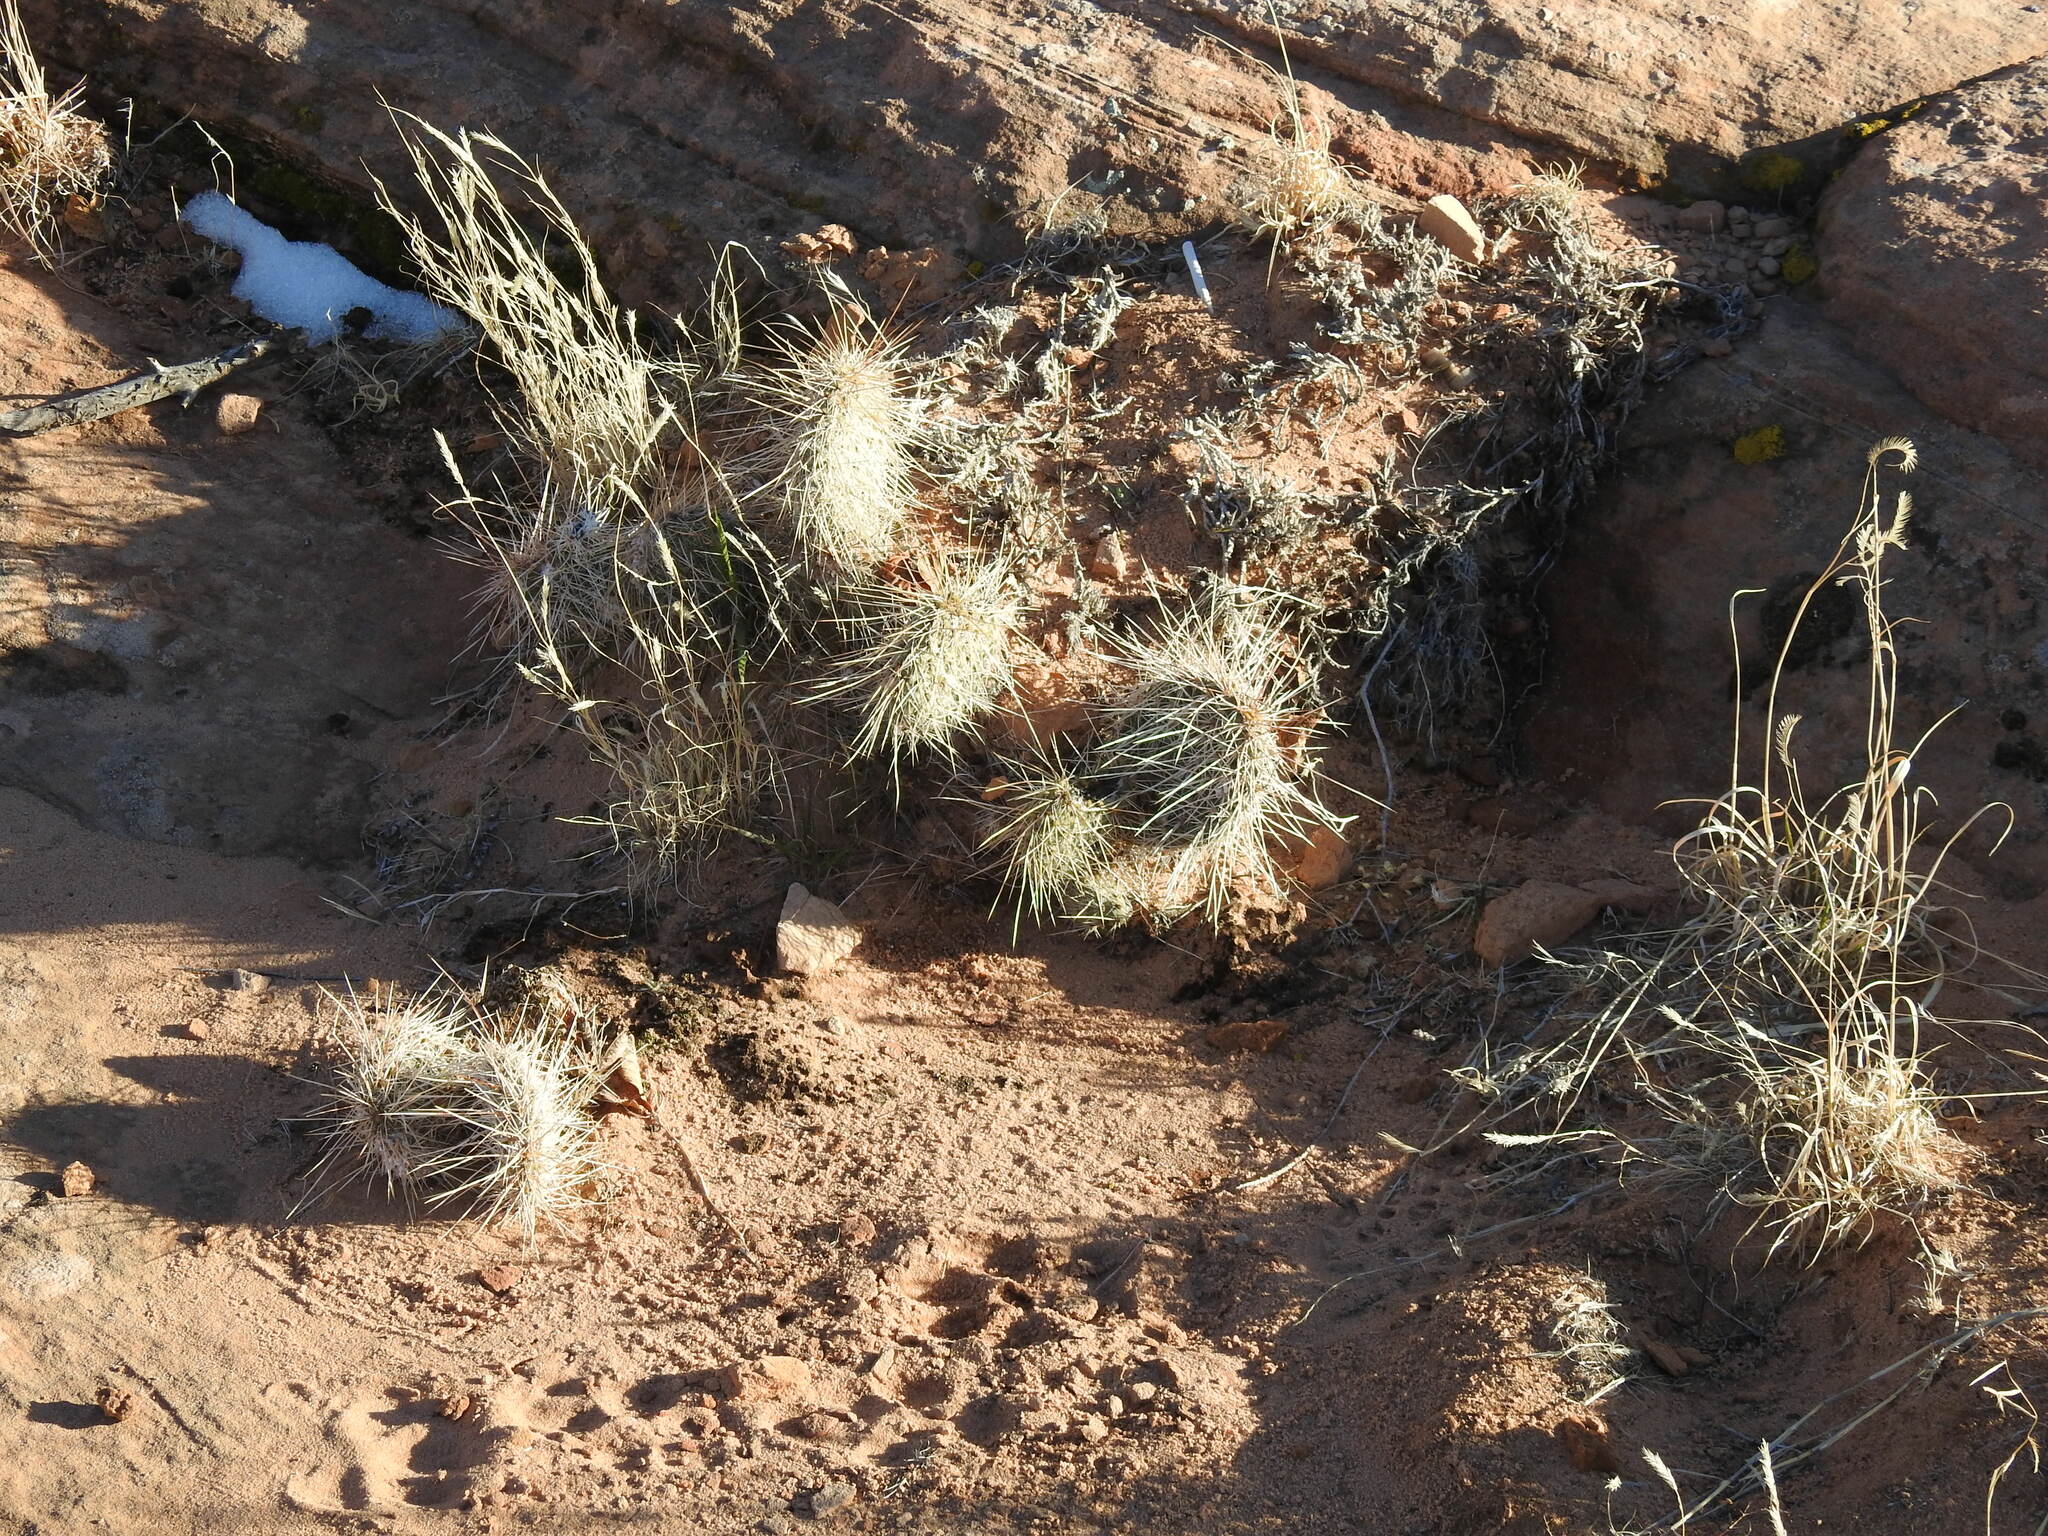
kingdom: Plantae
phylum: Tracheophyta
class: Magnoliopsida
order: Caryophyllales
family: Cactaceae
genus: Opuntia
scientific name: Opuntia polyacantha
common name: Plains prickly-pear
